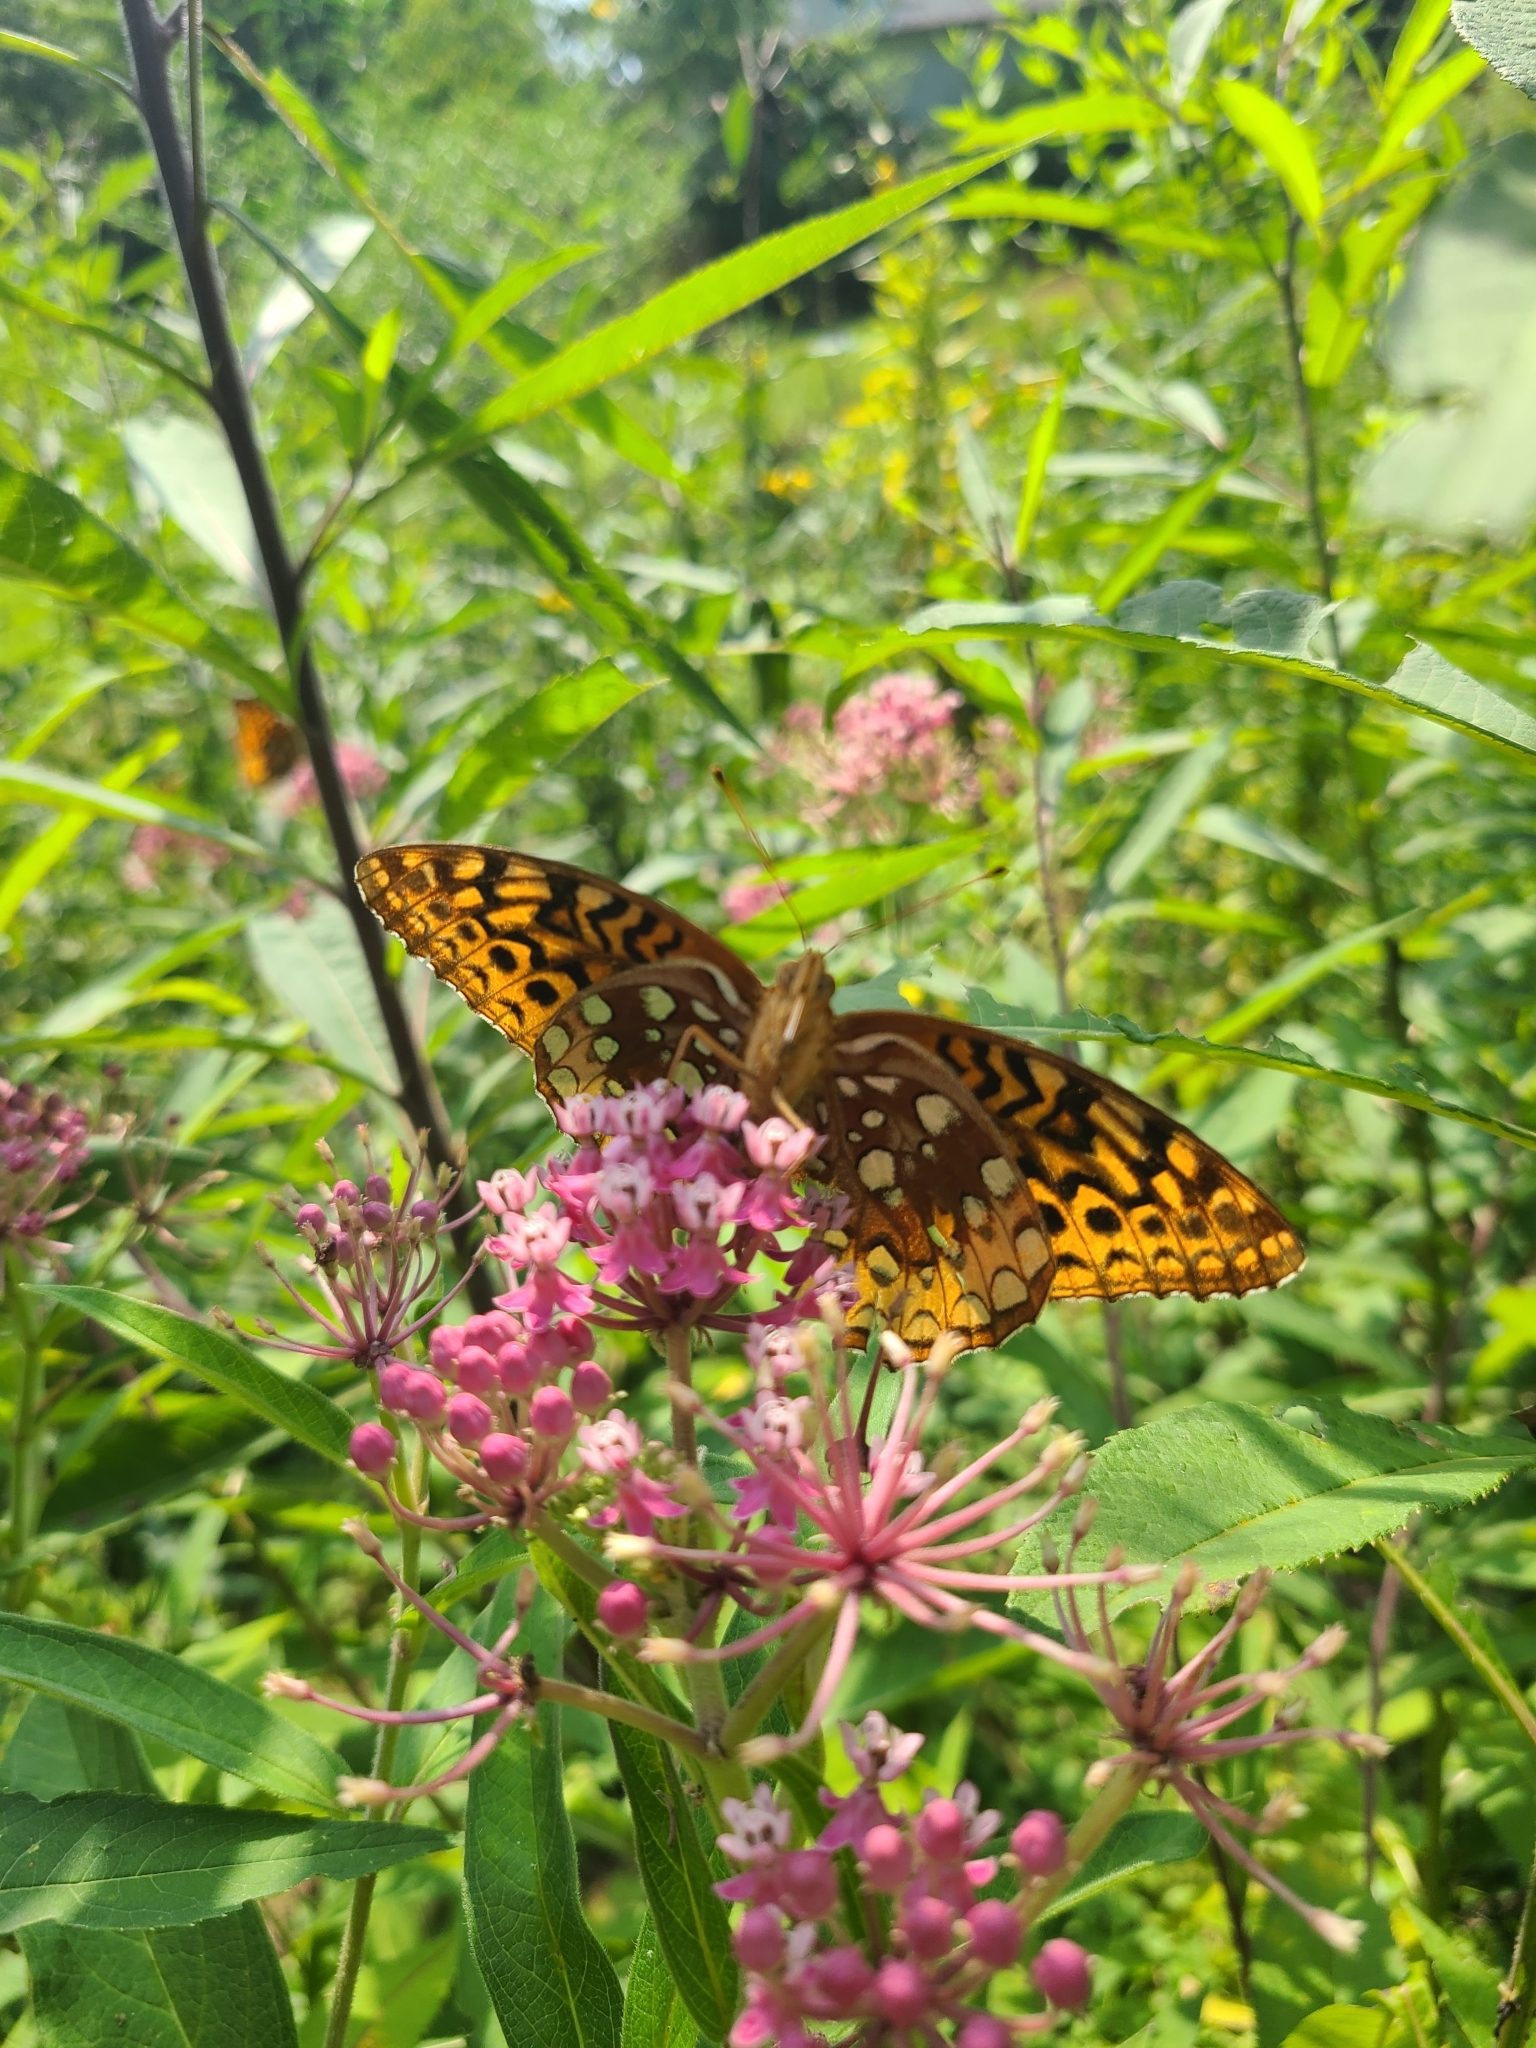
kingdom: Animalia
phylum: Arthropoda
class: Insecta
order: Lepidoptera
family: Nymphalidae
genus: Speyeria
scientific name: Speyeria cybele
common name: Great spangled fritillary
